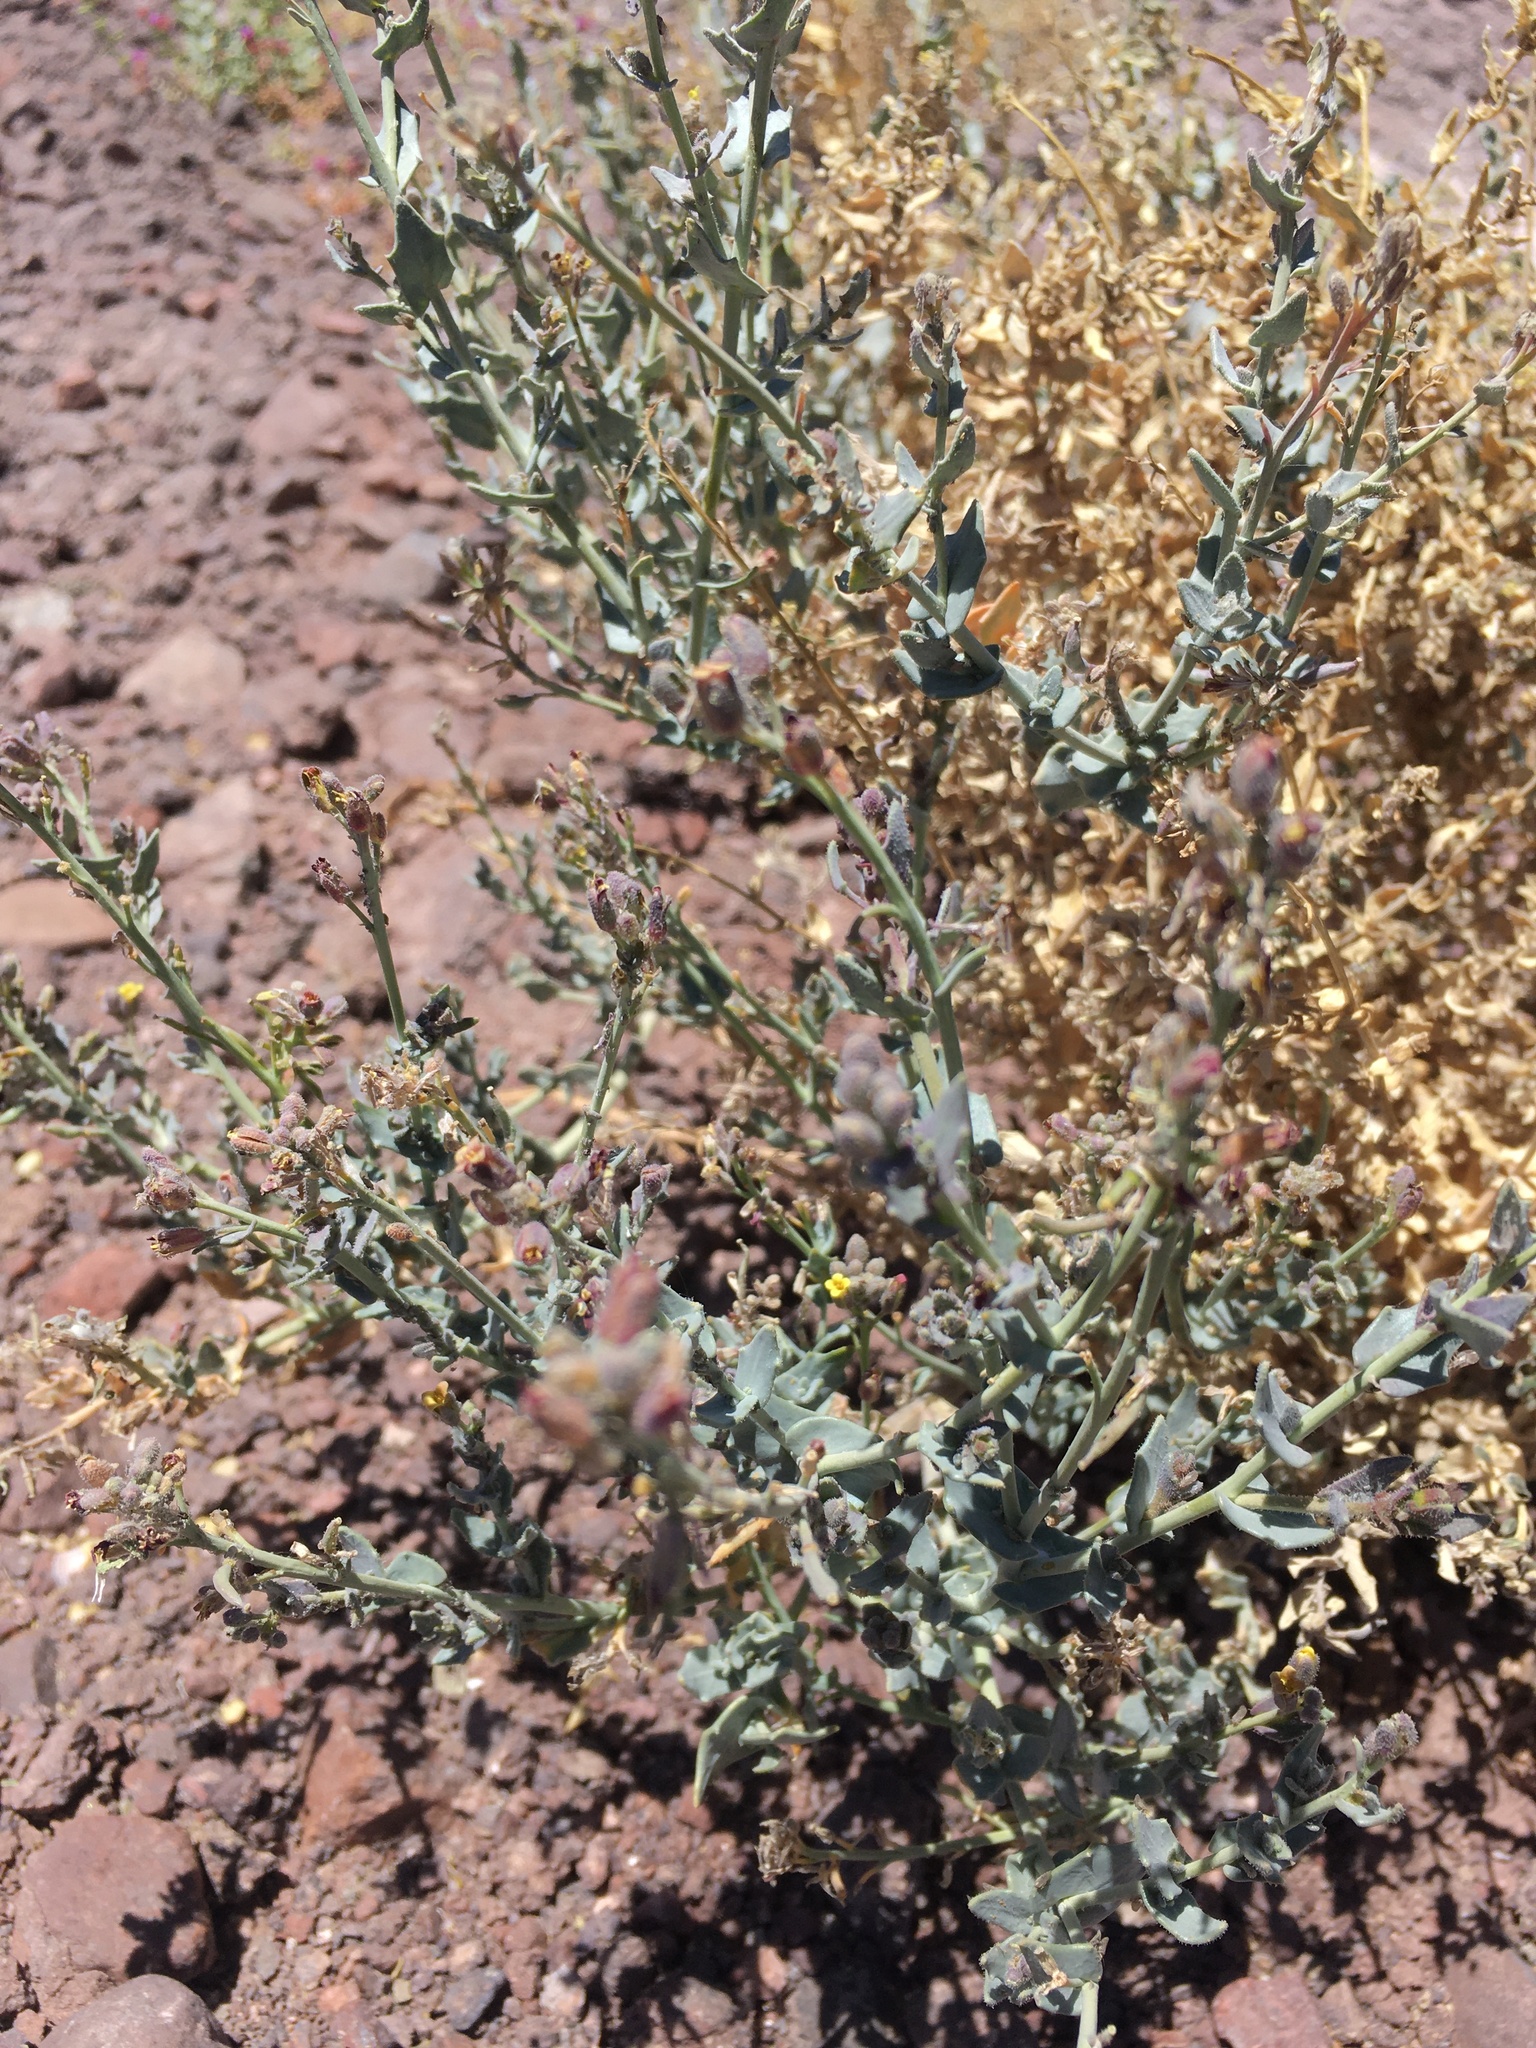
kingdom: Plantae
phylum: Tracheophyta
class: Magnoliopsida
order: Brassicales
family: Brassicaceae
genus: Neuontobotrys
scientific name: Neuontobotrys tarapacana
